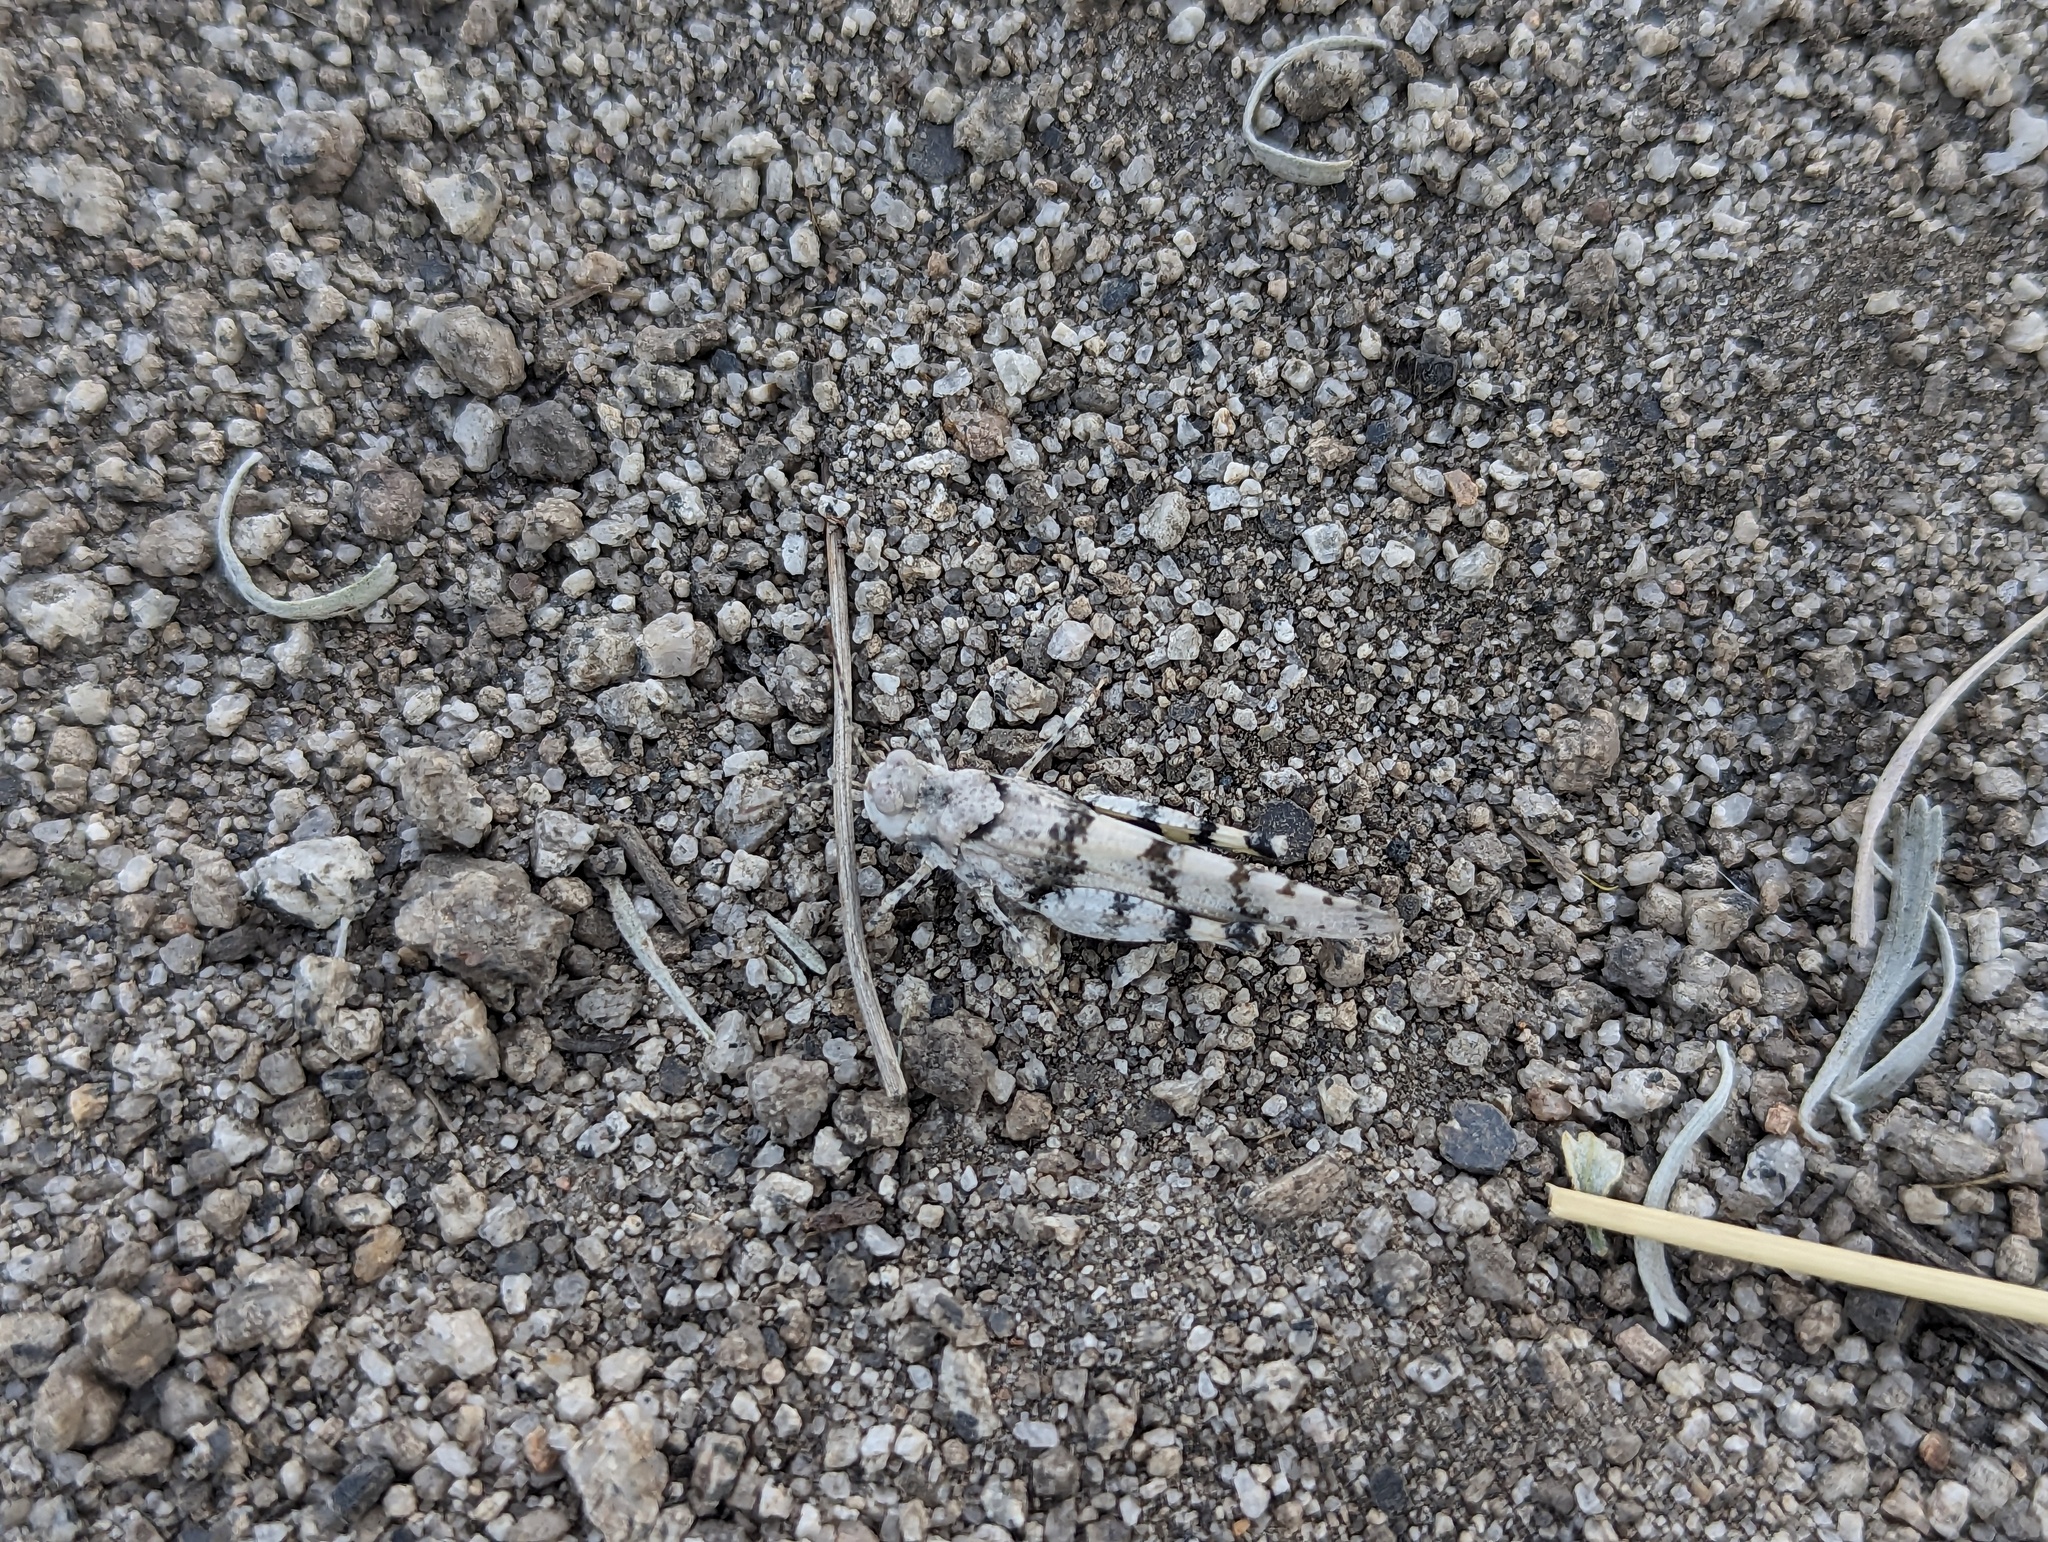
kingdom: Animalia
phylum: Arthropoda
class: Insecta
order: Orthoptera
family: Acrididae
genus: Trimerotropis
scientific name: Trimerotropis albescens
